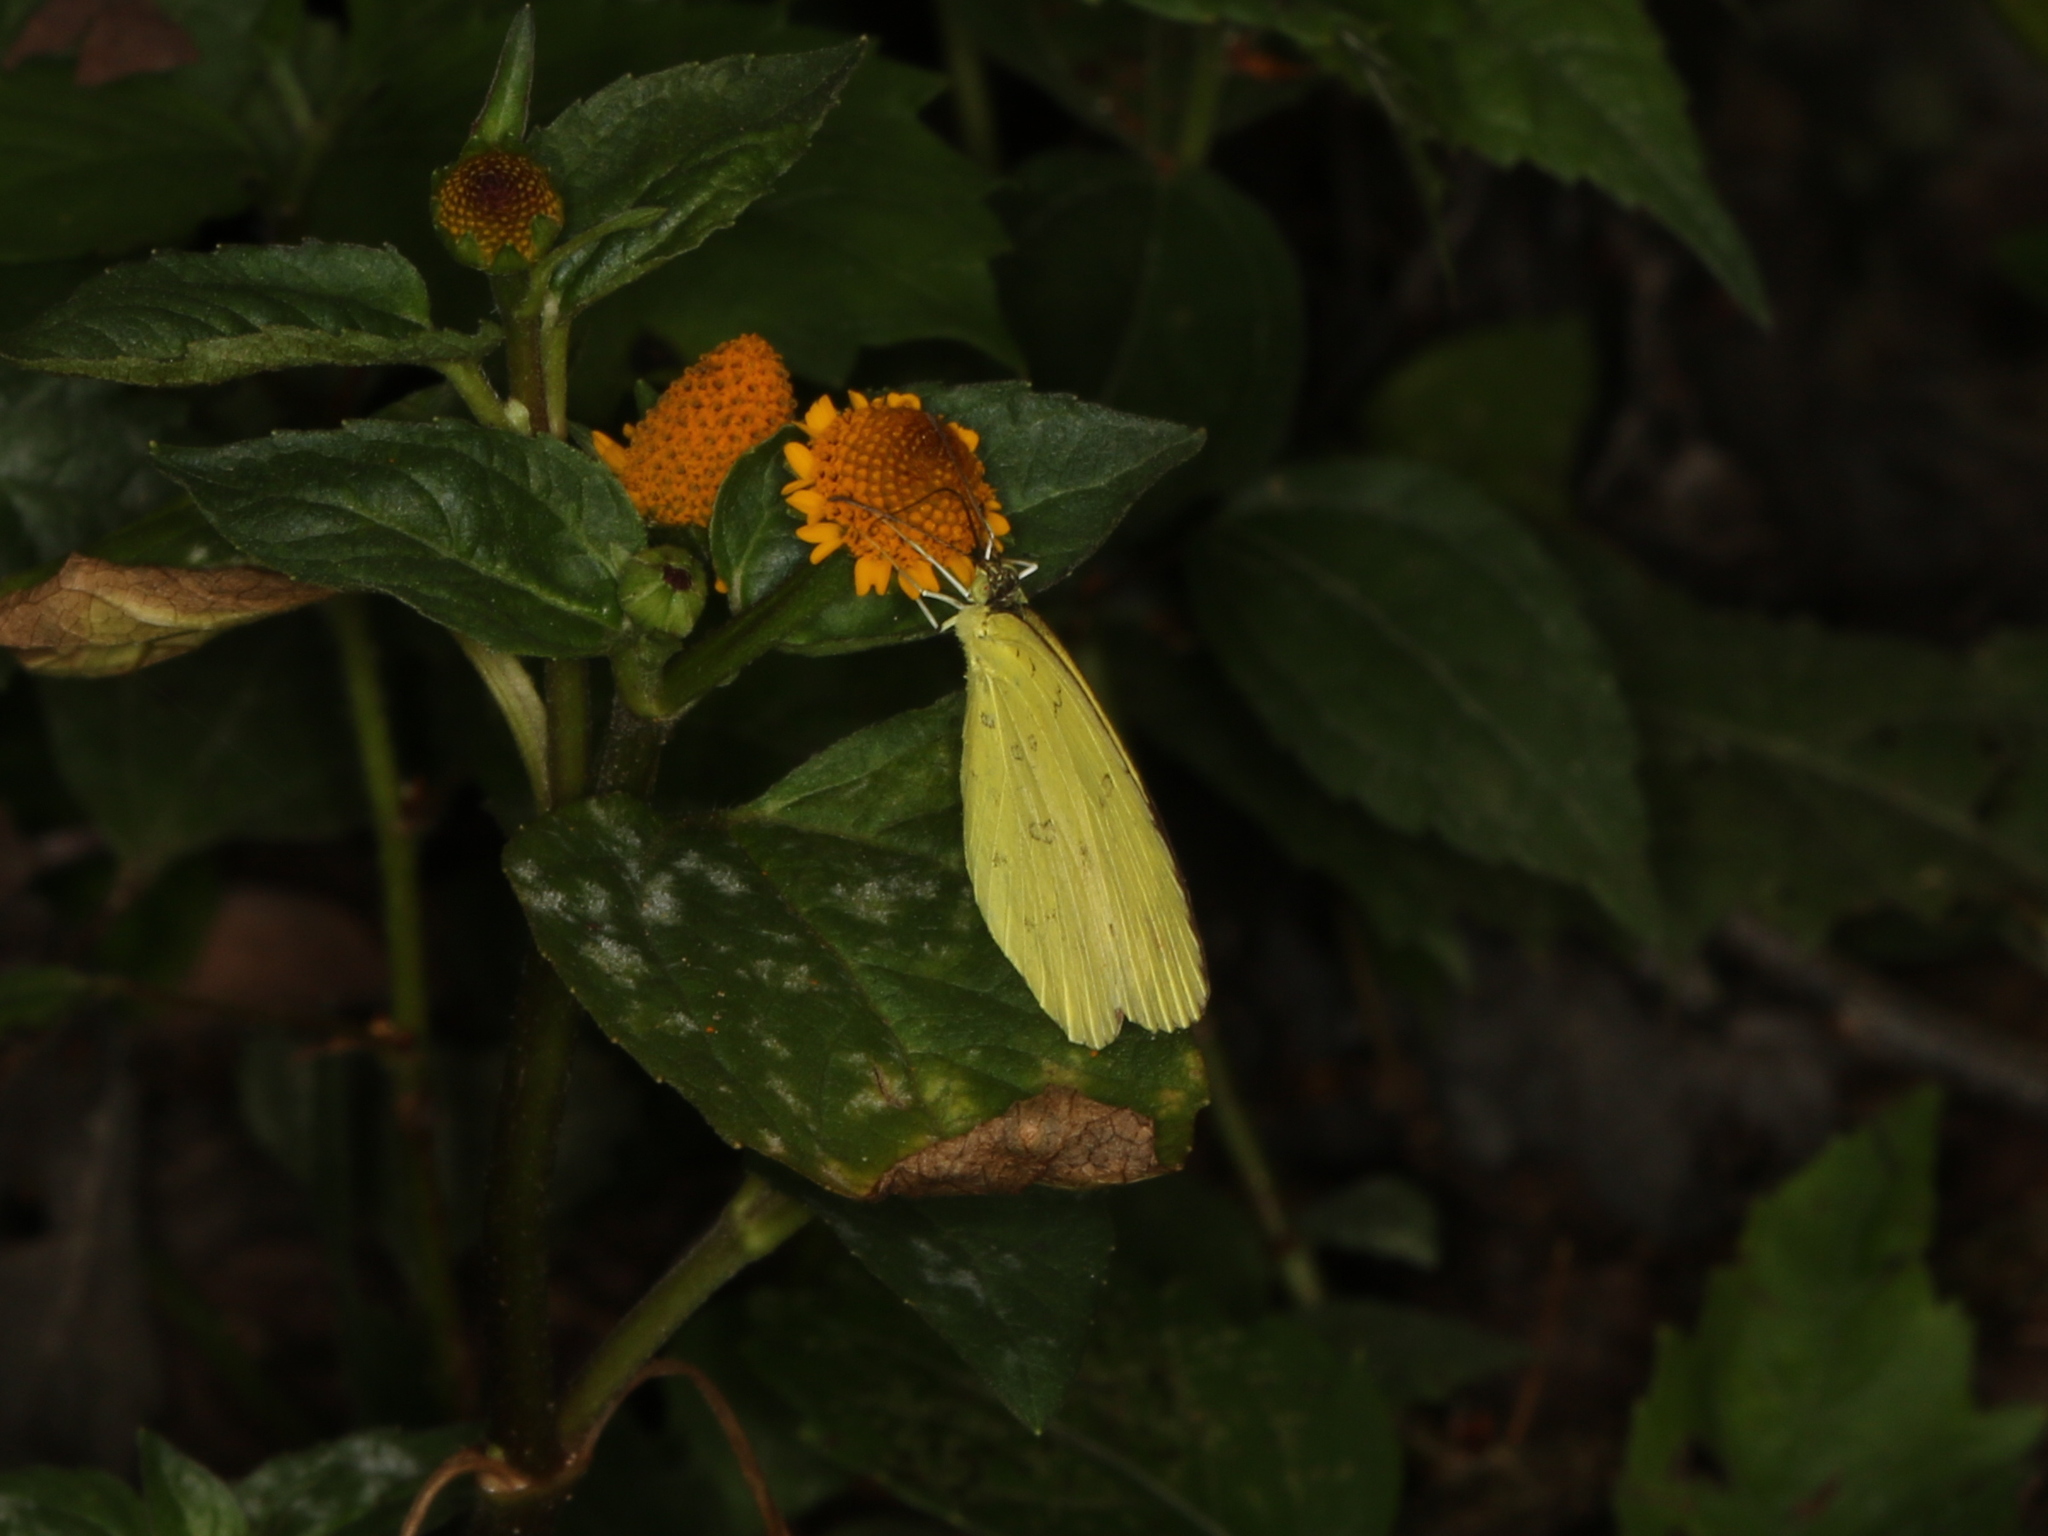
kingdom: Animalia
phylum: Arthropoda
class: Insecta
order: Lepidoptera
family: Pieridae
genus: Eurema
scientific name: Eurema blanda
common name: Three-spot grass yellow
